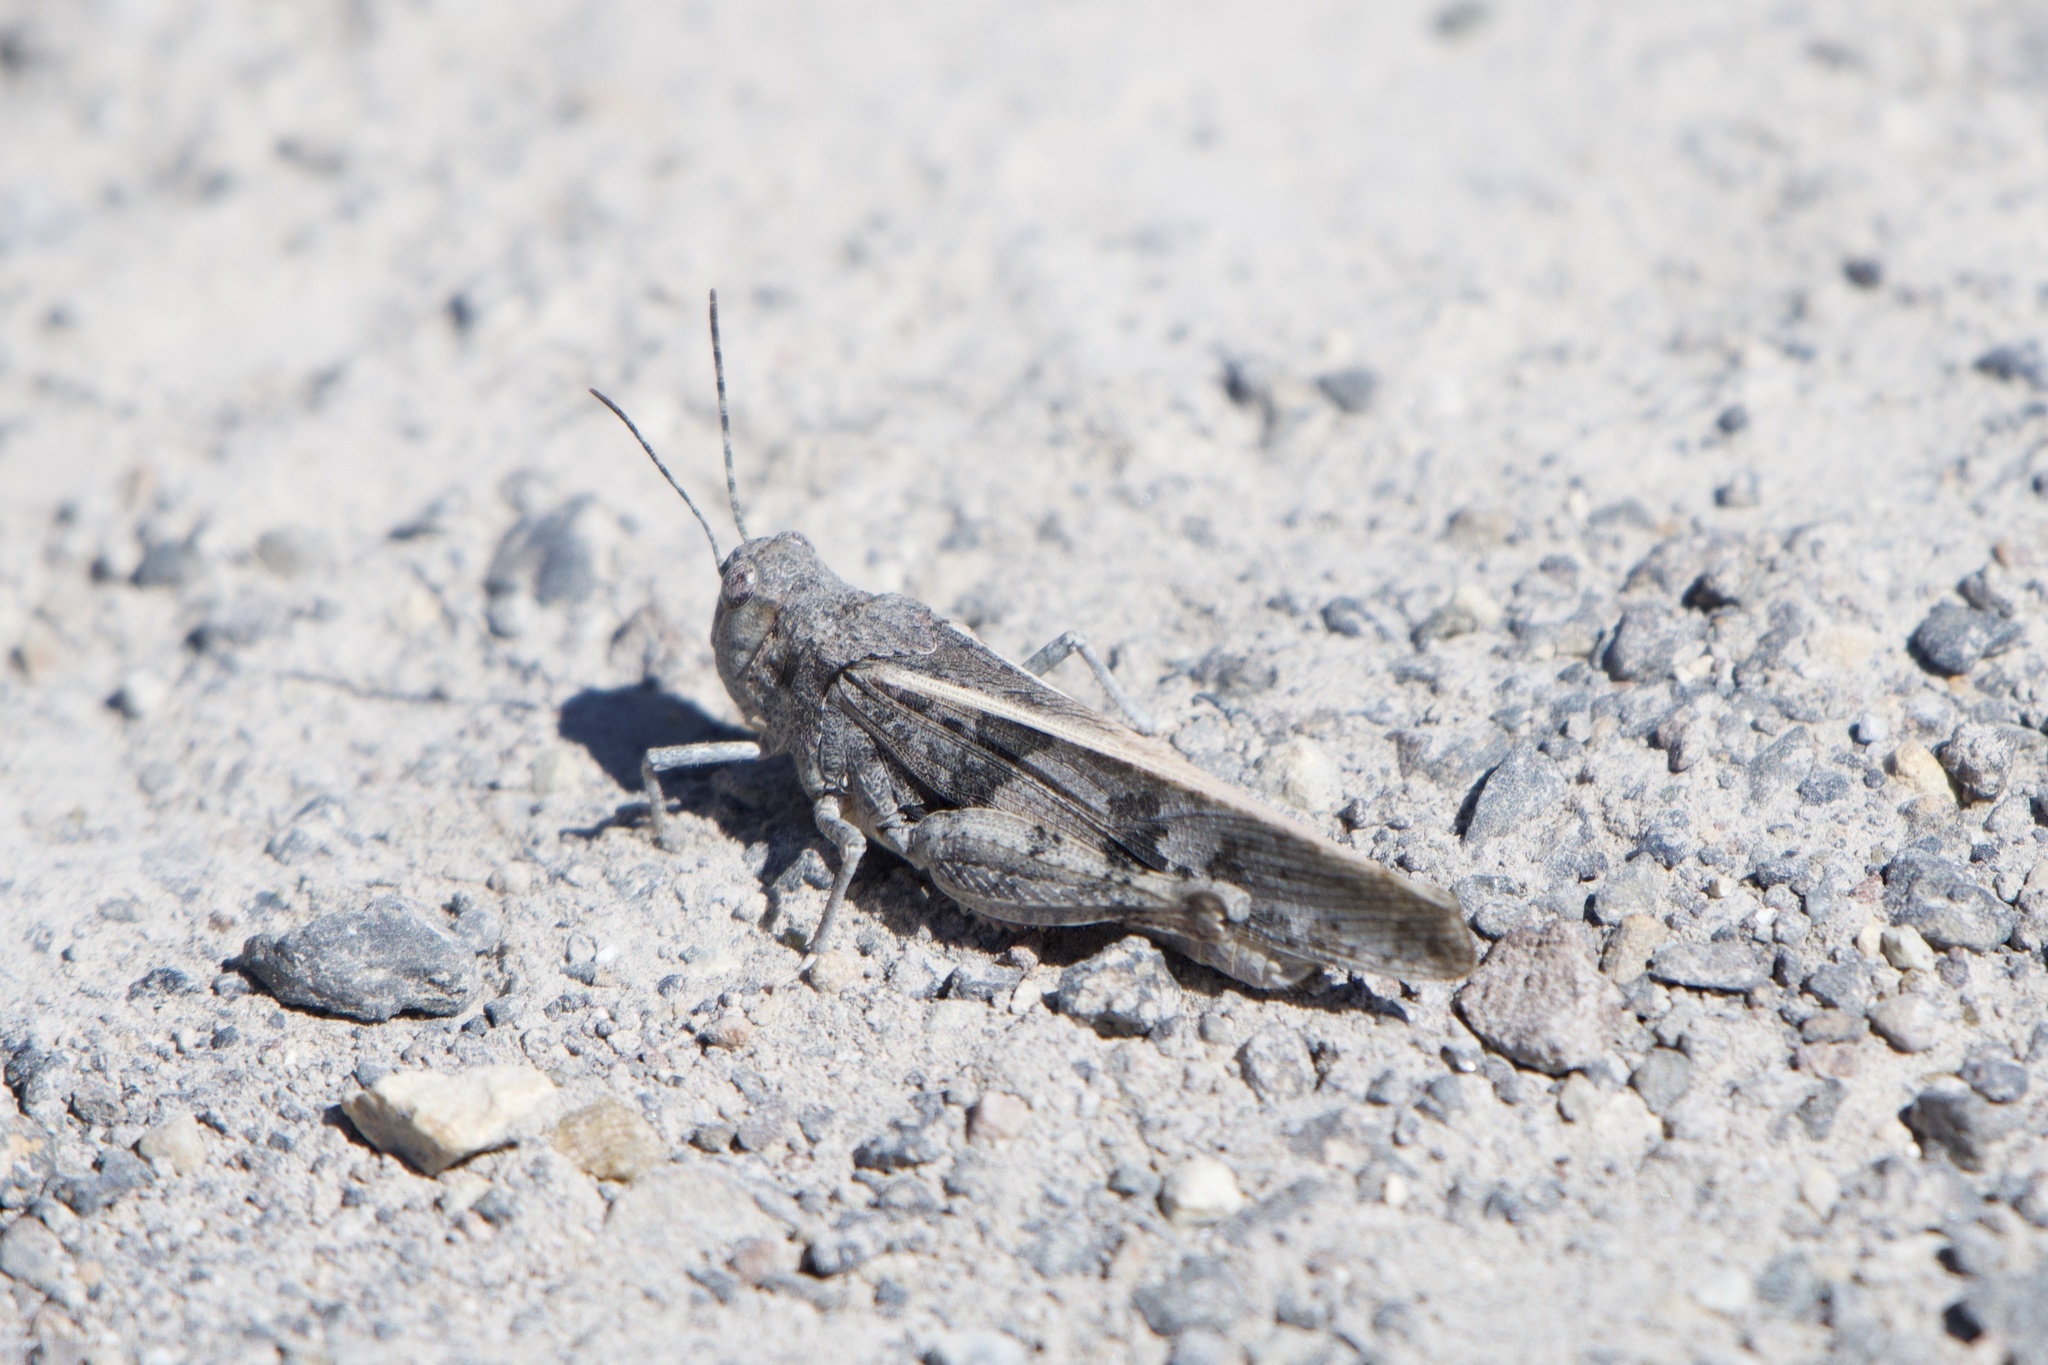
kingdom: Animalia
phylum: Arthropoda
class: Insecta
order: Orthoptera
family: Acrididae
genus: Cratypedes
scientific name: Cratypedes lateritius
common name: Nevada red-winged grasshopper
